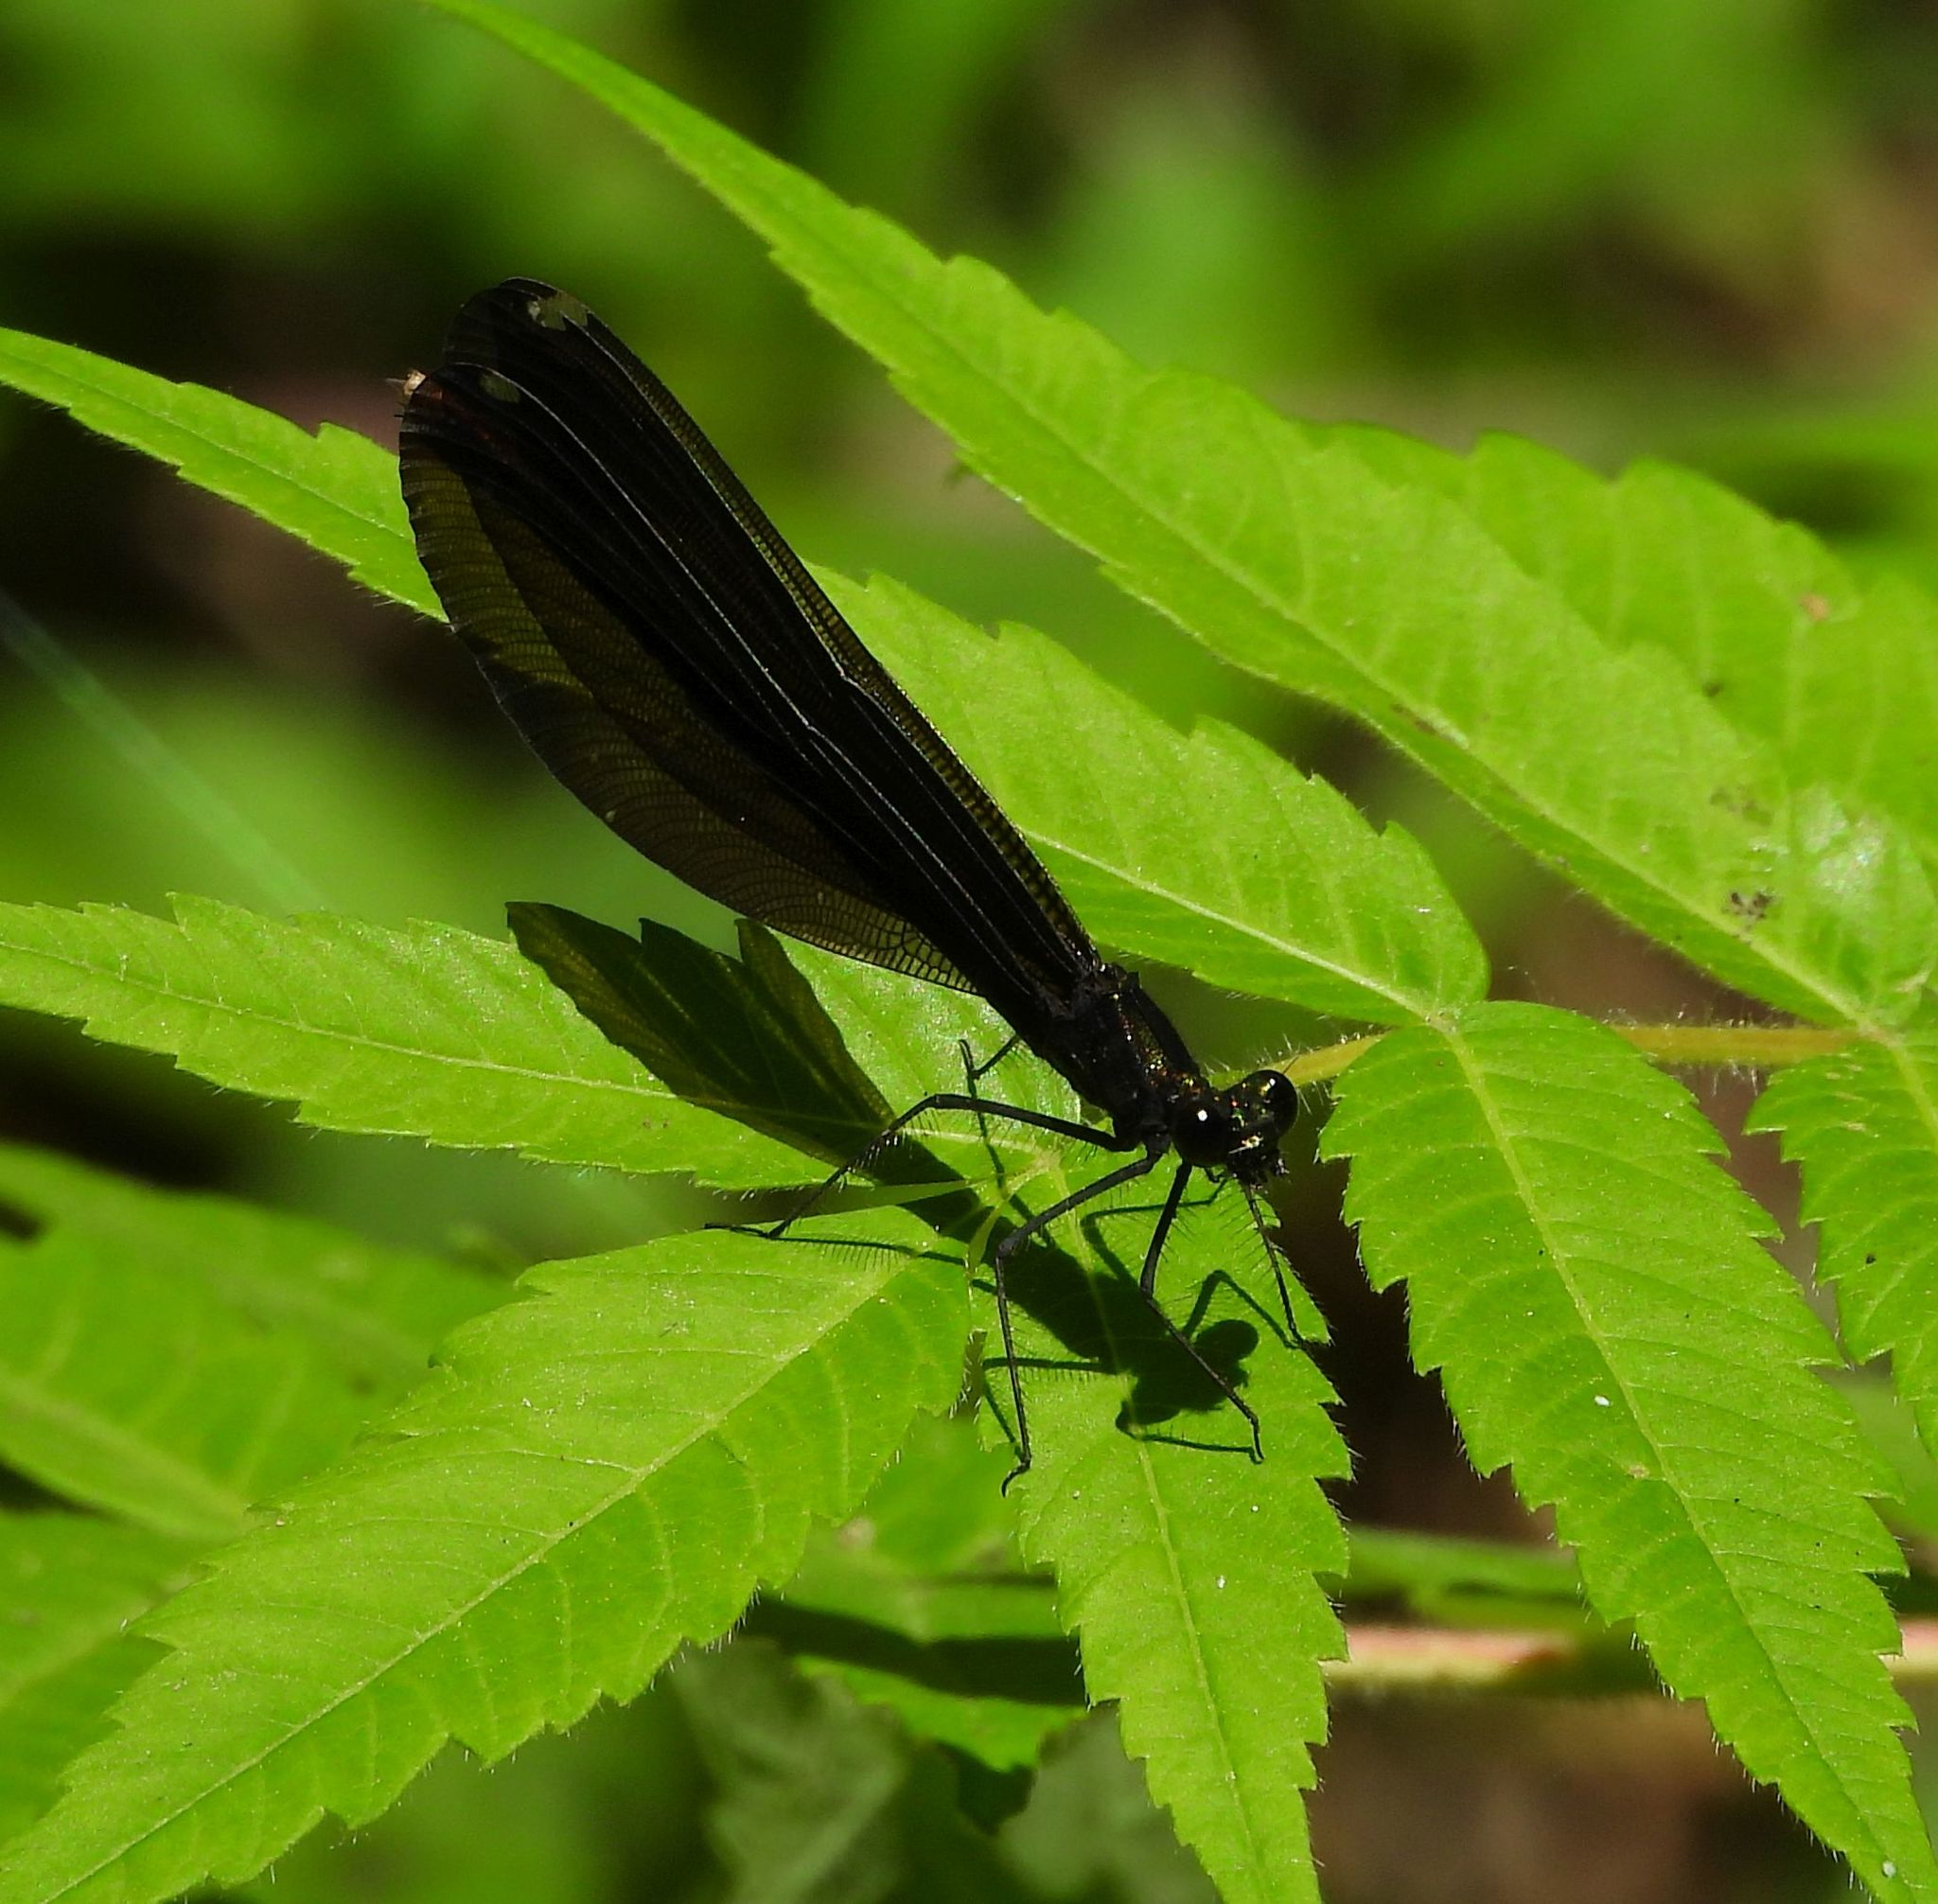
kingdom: Animalia
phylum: Arthropoda
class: Insecta
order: Odonata
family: Calopterygidae
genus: Calopteryx
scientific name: Calopteryx maculata
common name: Ebony jewelwing
